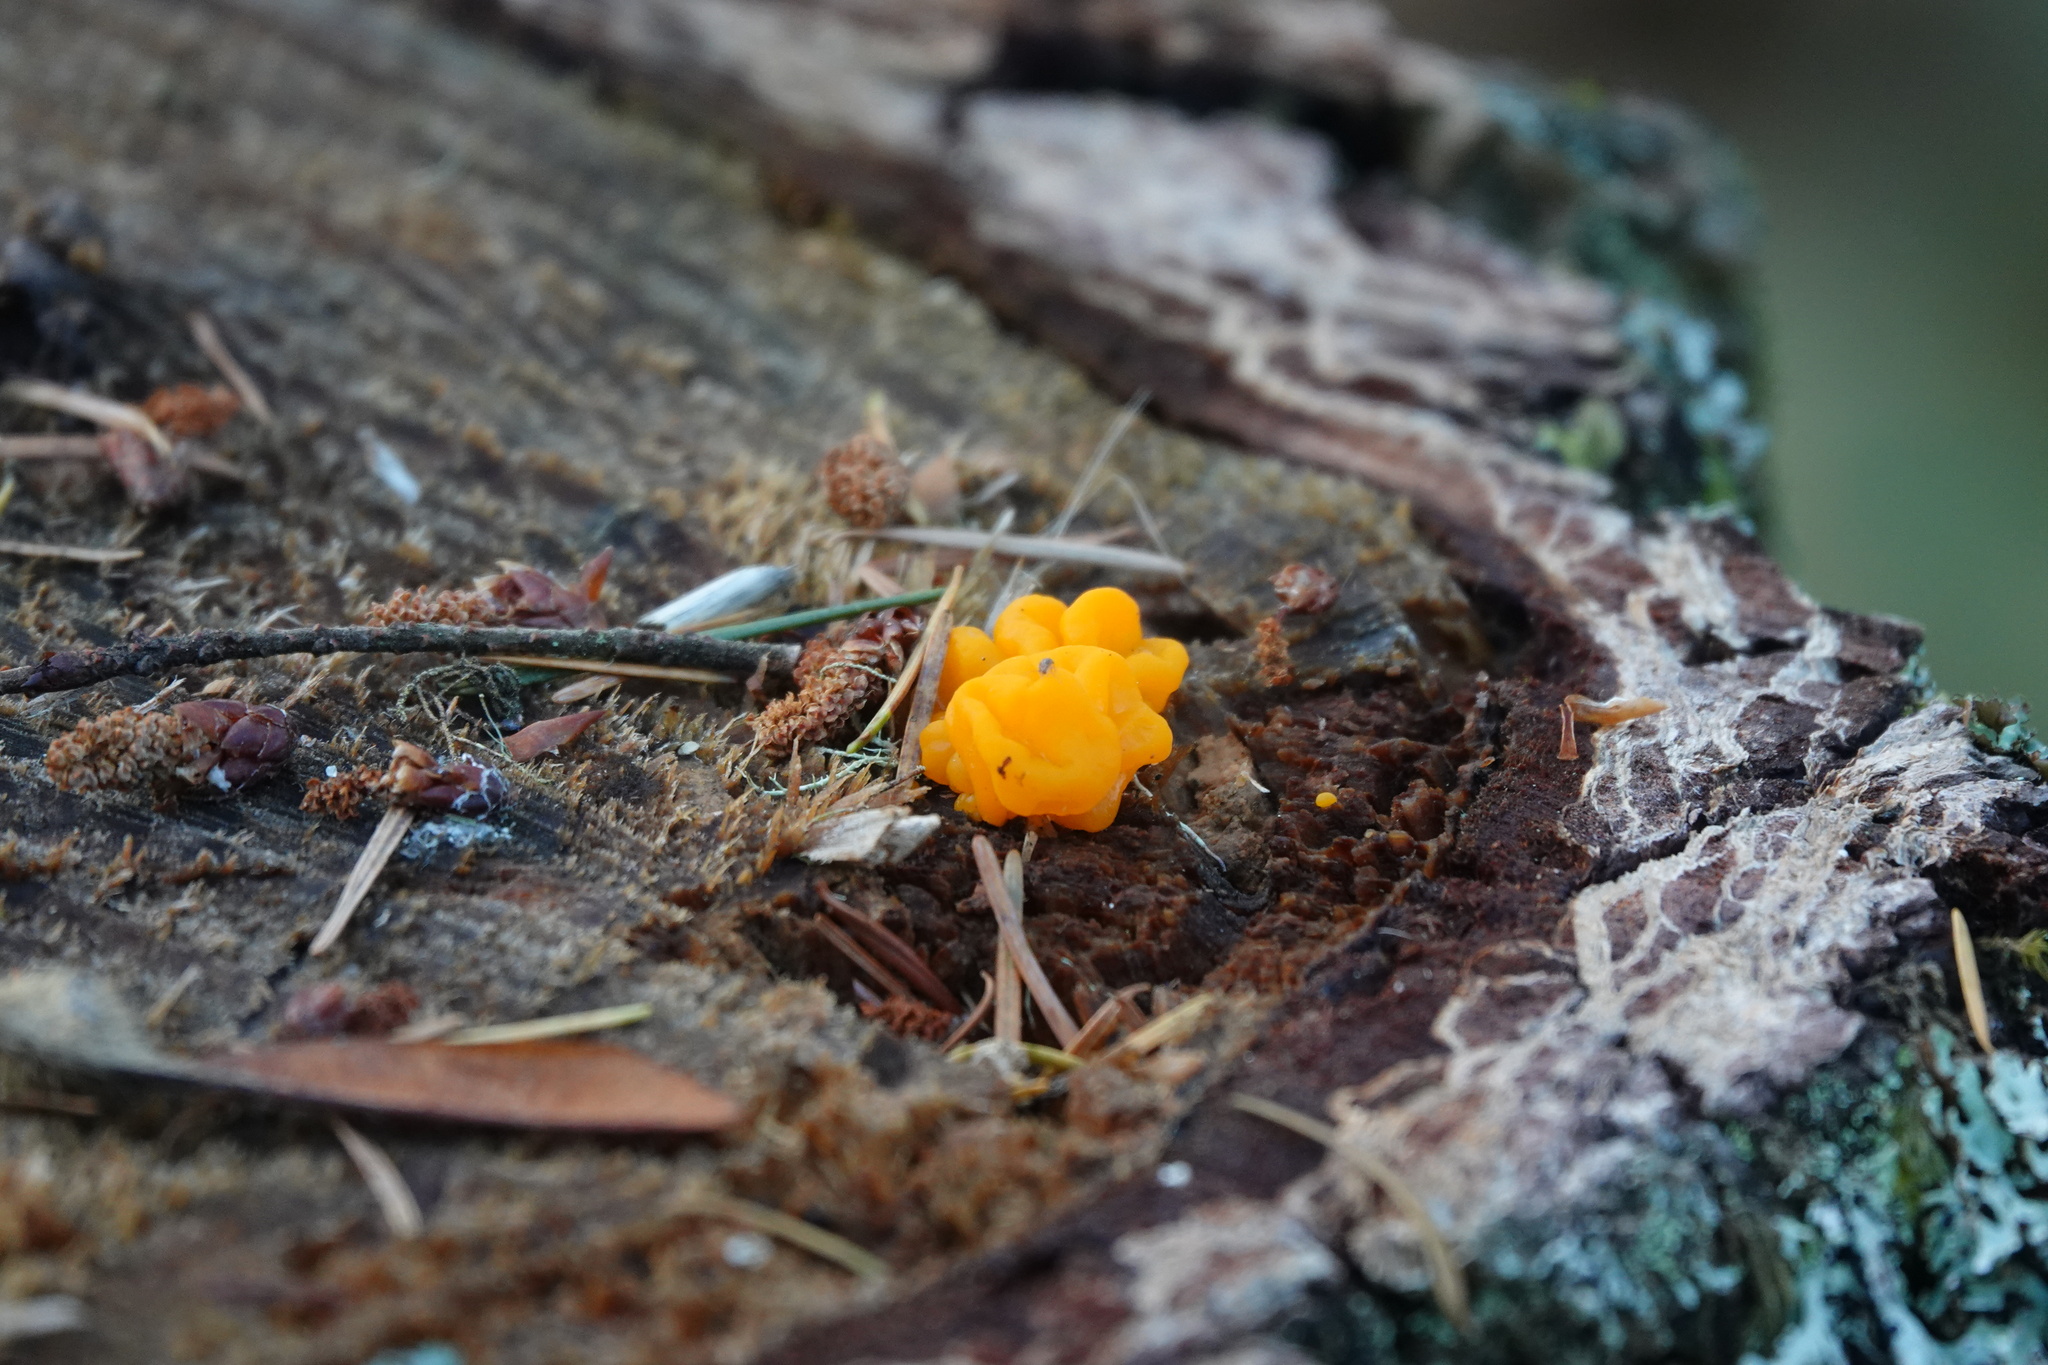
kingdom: Fungi
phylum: Basidiomycota
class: Dacrymycetes
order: Dacrymycetales
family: Dacrymycetaceae
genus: Dacrymyces
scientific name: Dacrymyces chrysospermus
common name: Orange jelly spot
